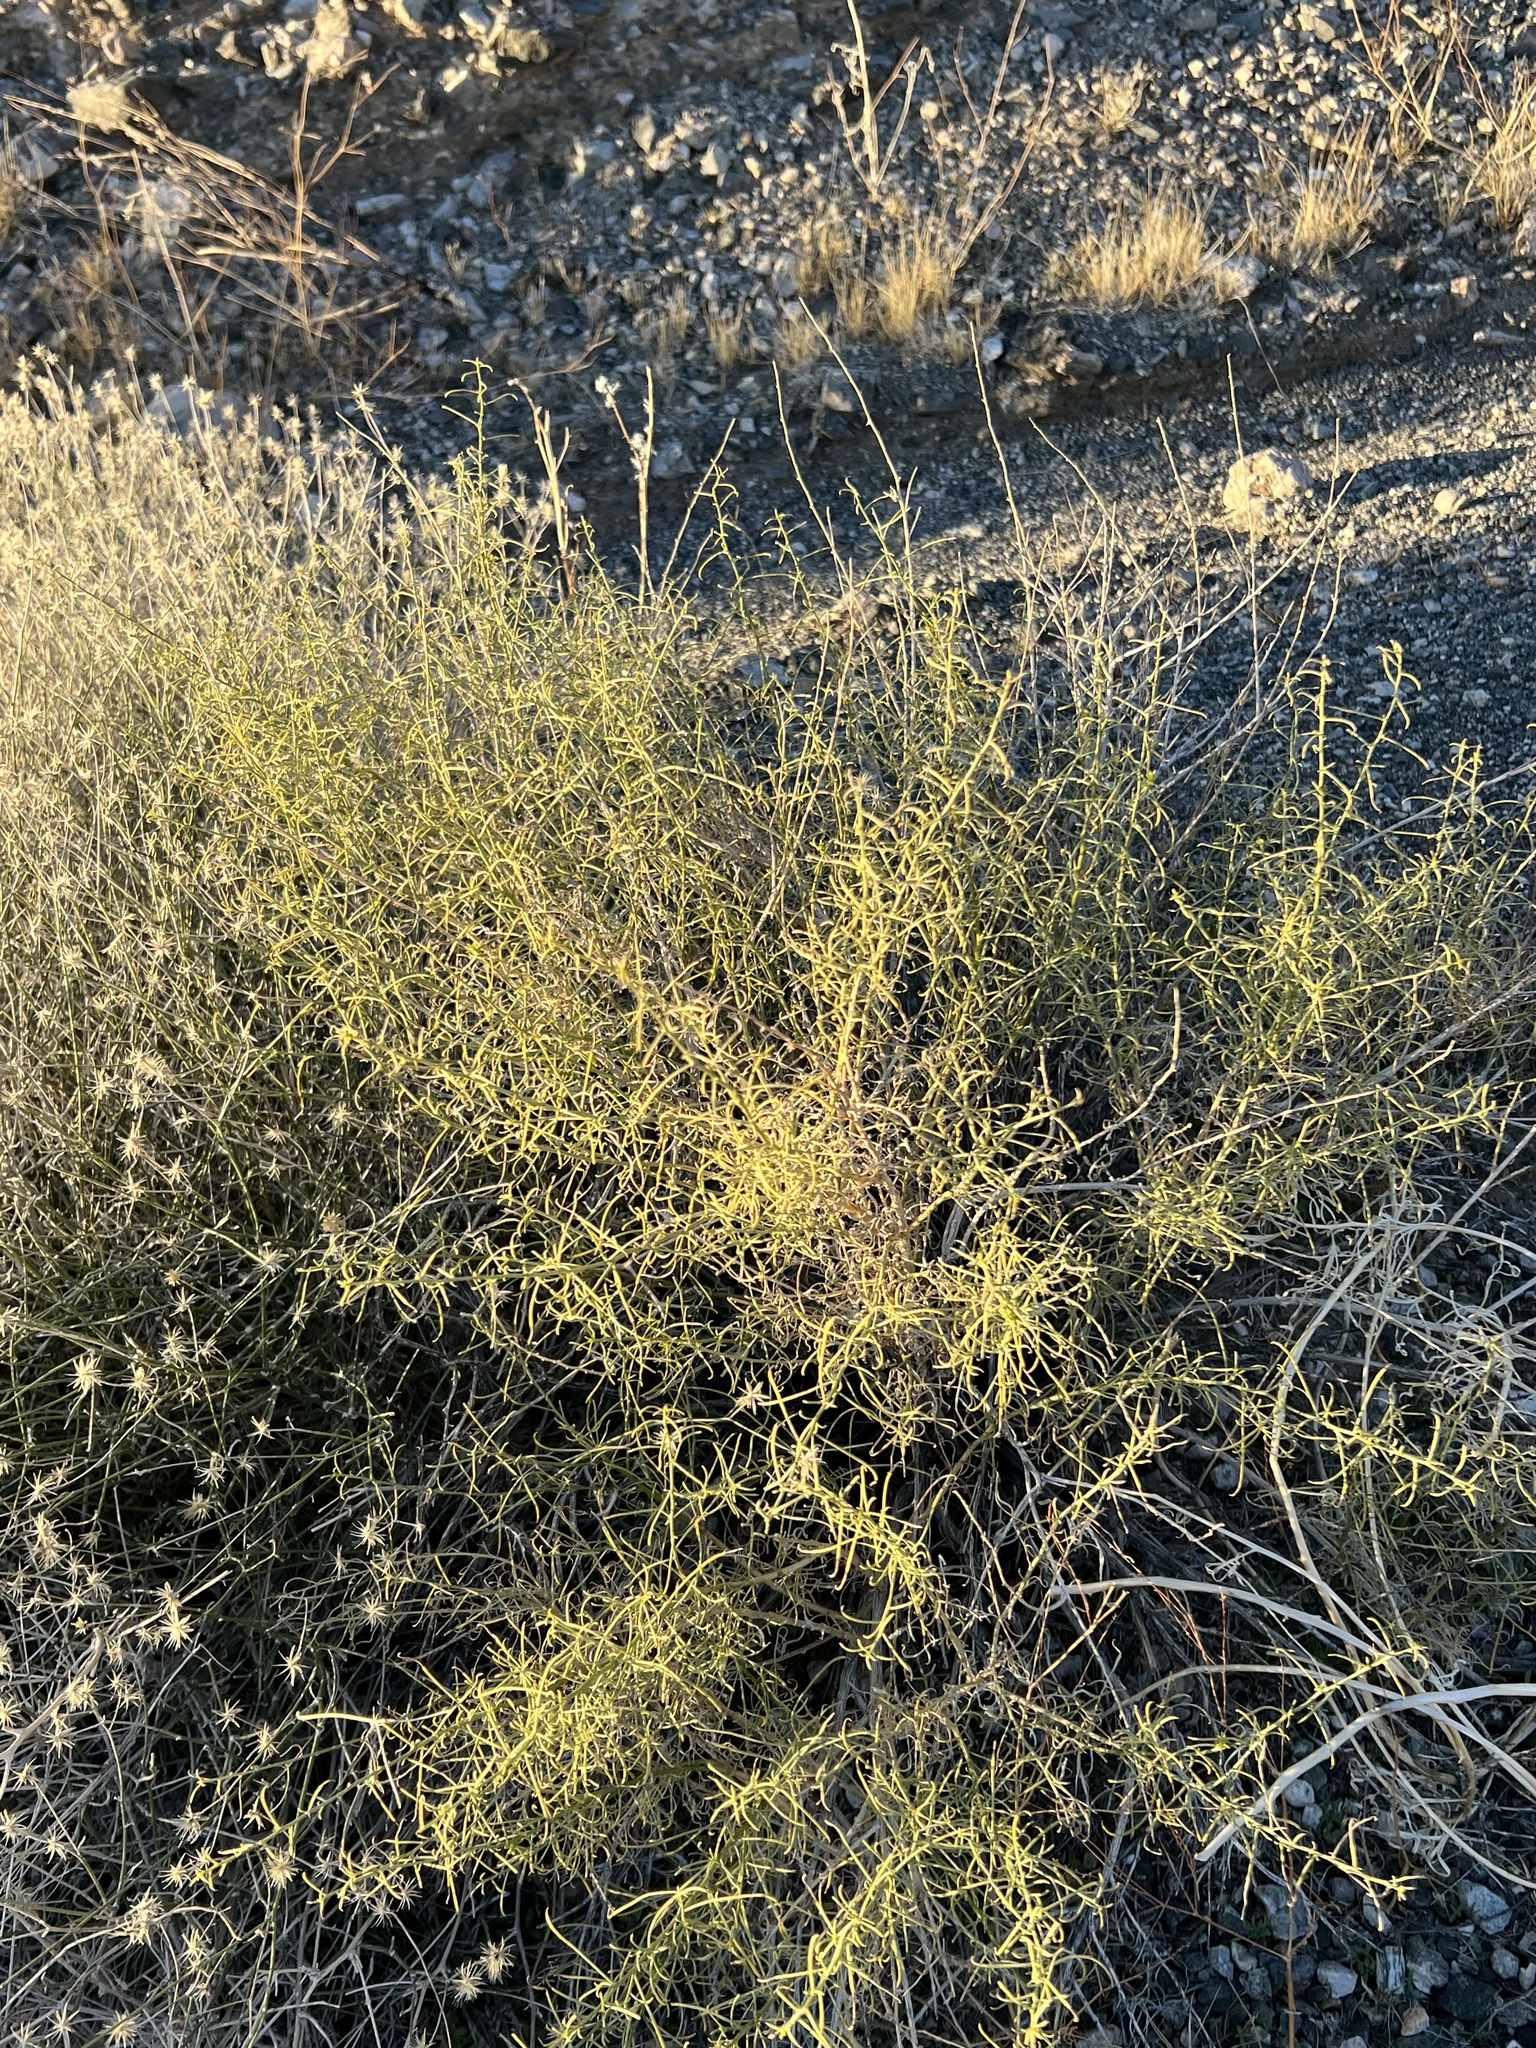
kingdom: Plantae
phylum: Tracheophyta
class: Magnoliopsida
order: Asterales
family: Asteraceae
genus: Ambrosia
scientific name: Ambrosia salsola
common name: Burrobrush
